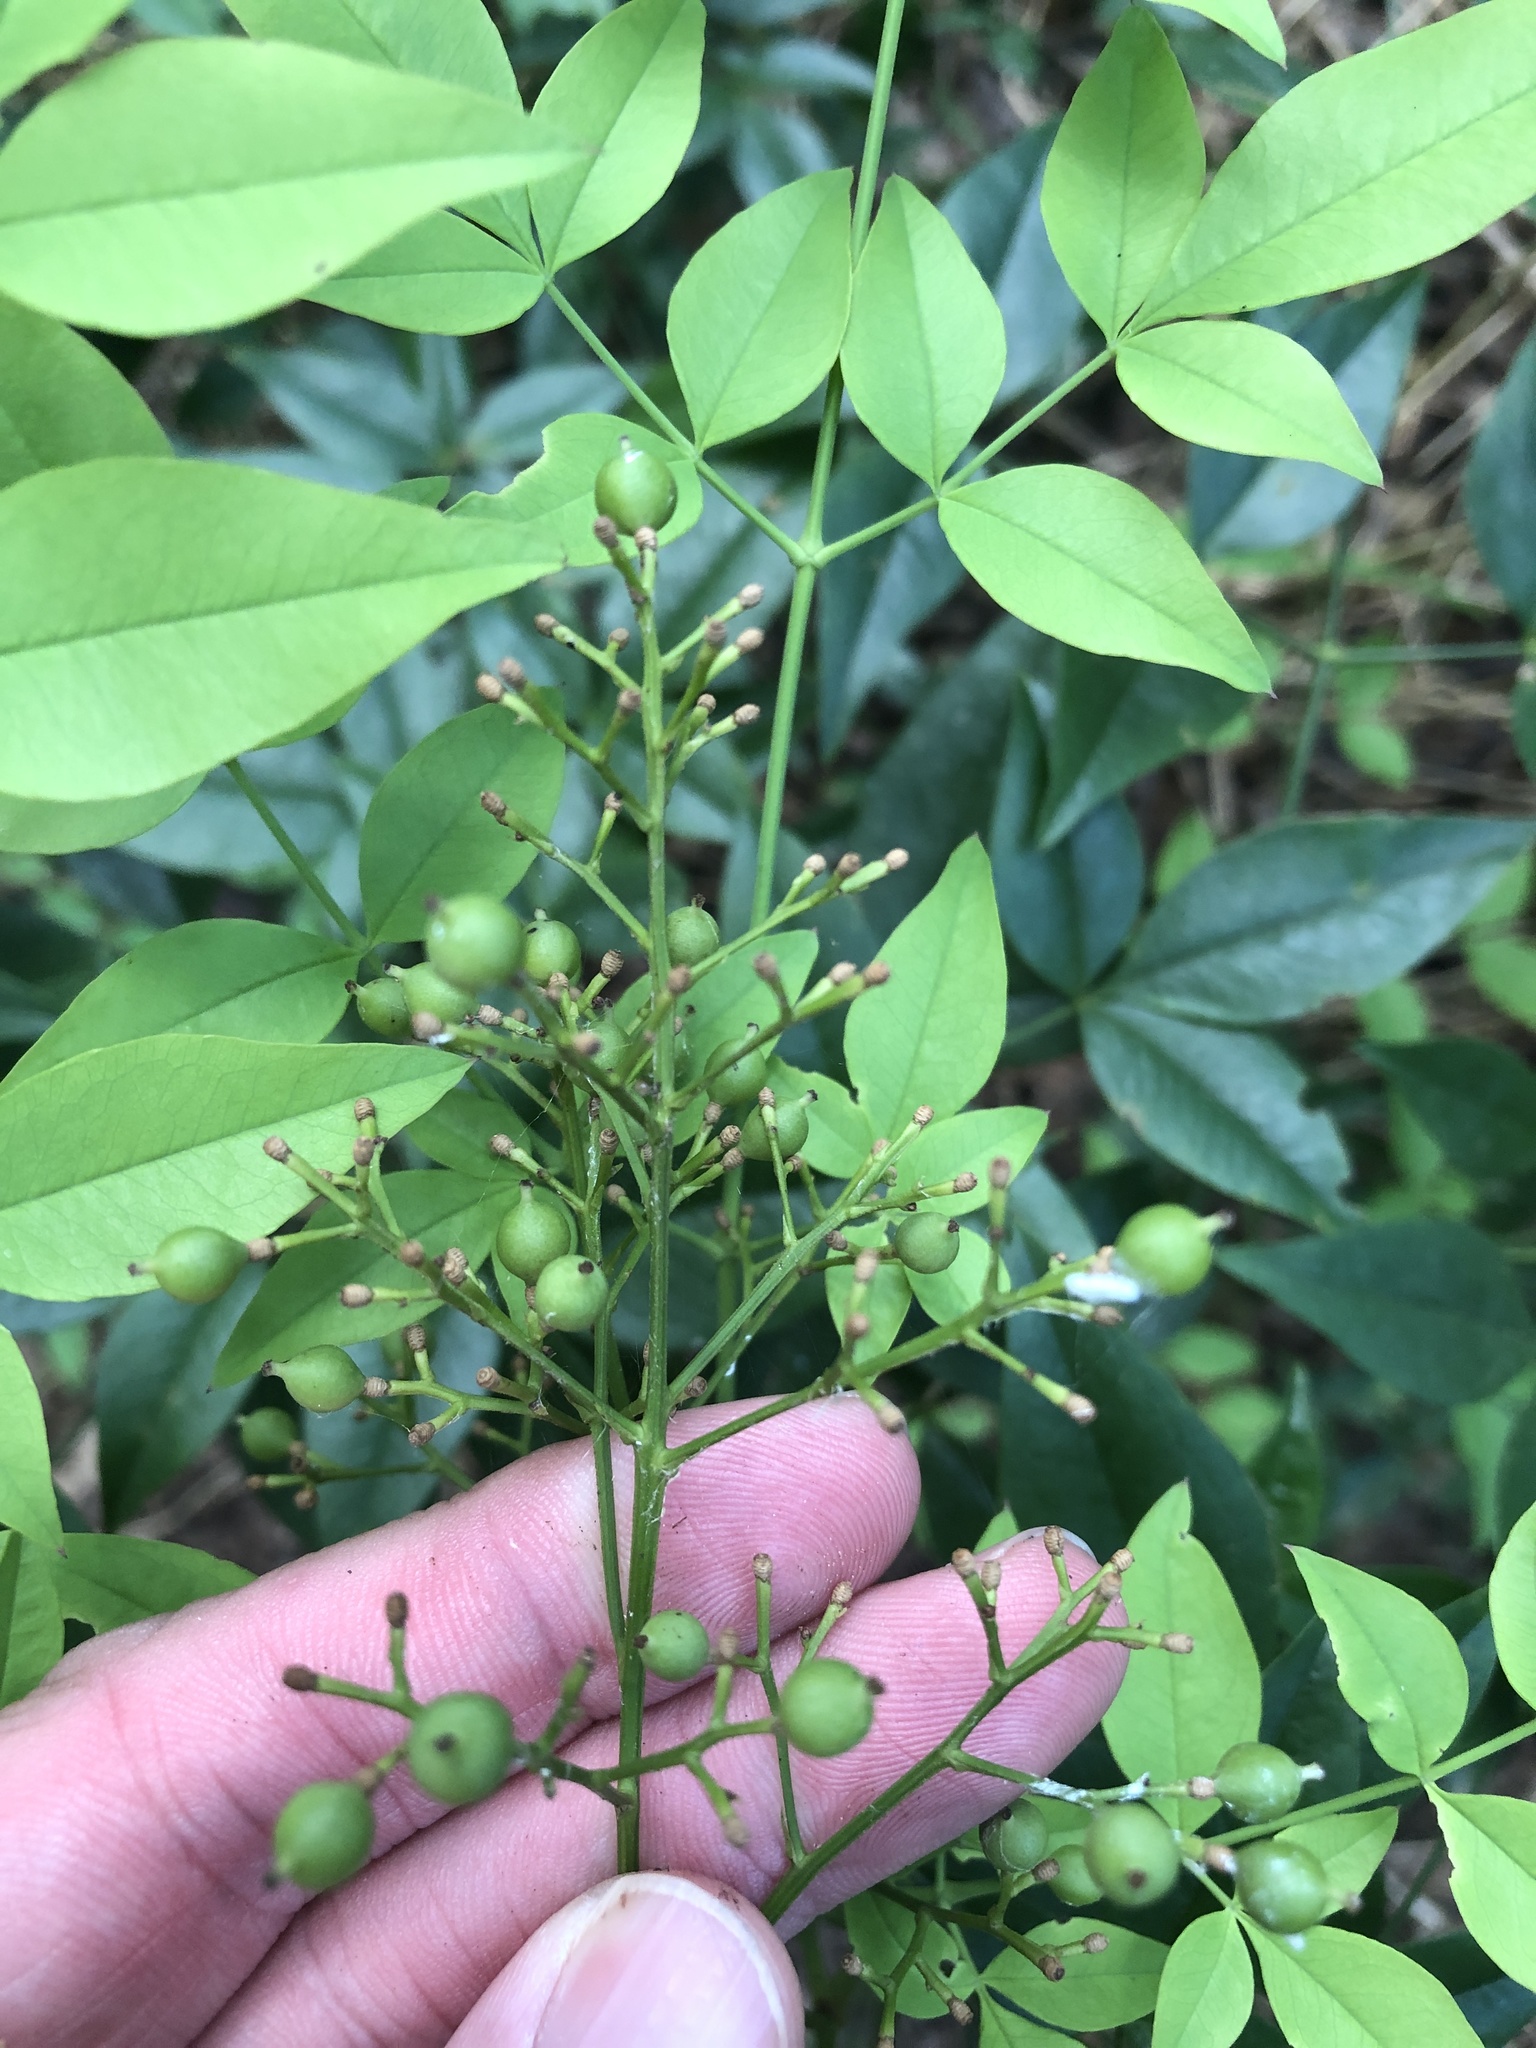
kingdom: Plantae
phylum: Tracheophyta
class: Magnoliopsida
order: Ranunculales
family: Berberidaceae
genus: Nandina
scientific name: Nandina domestica
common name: Sacred bamboo
